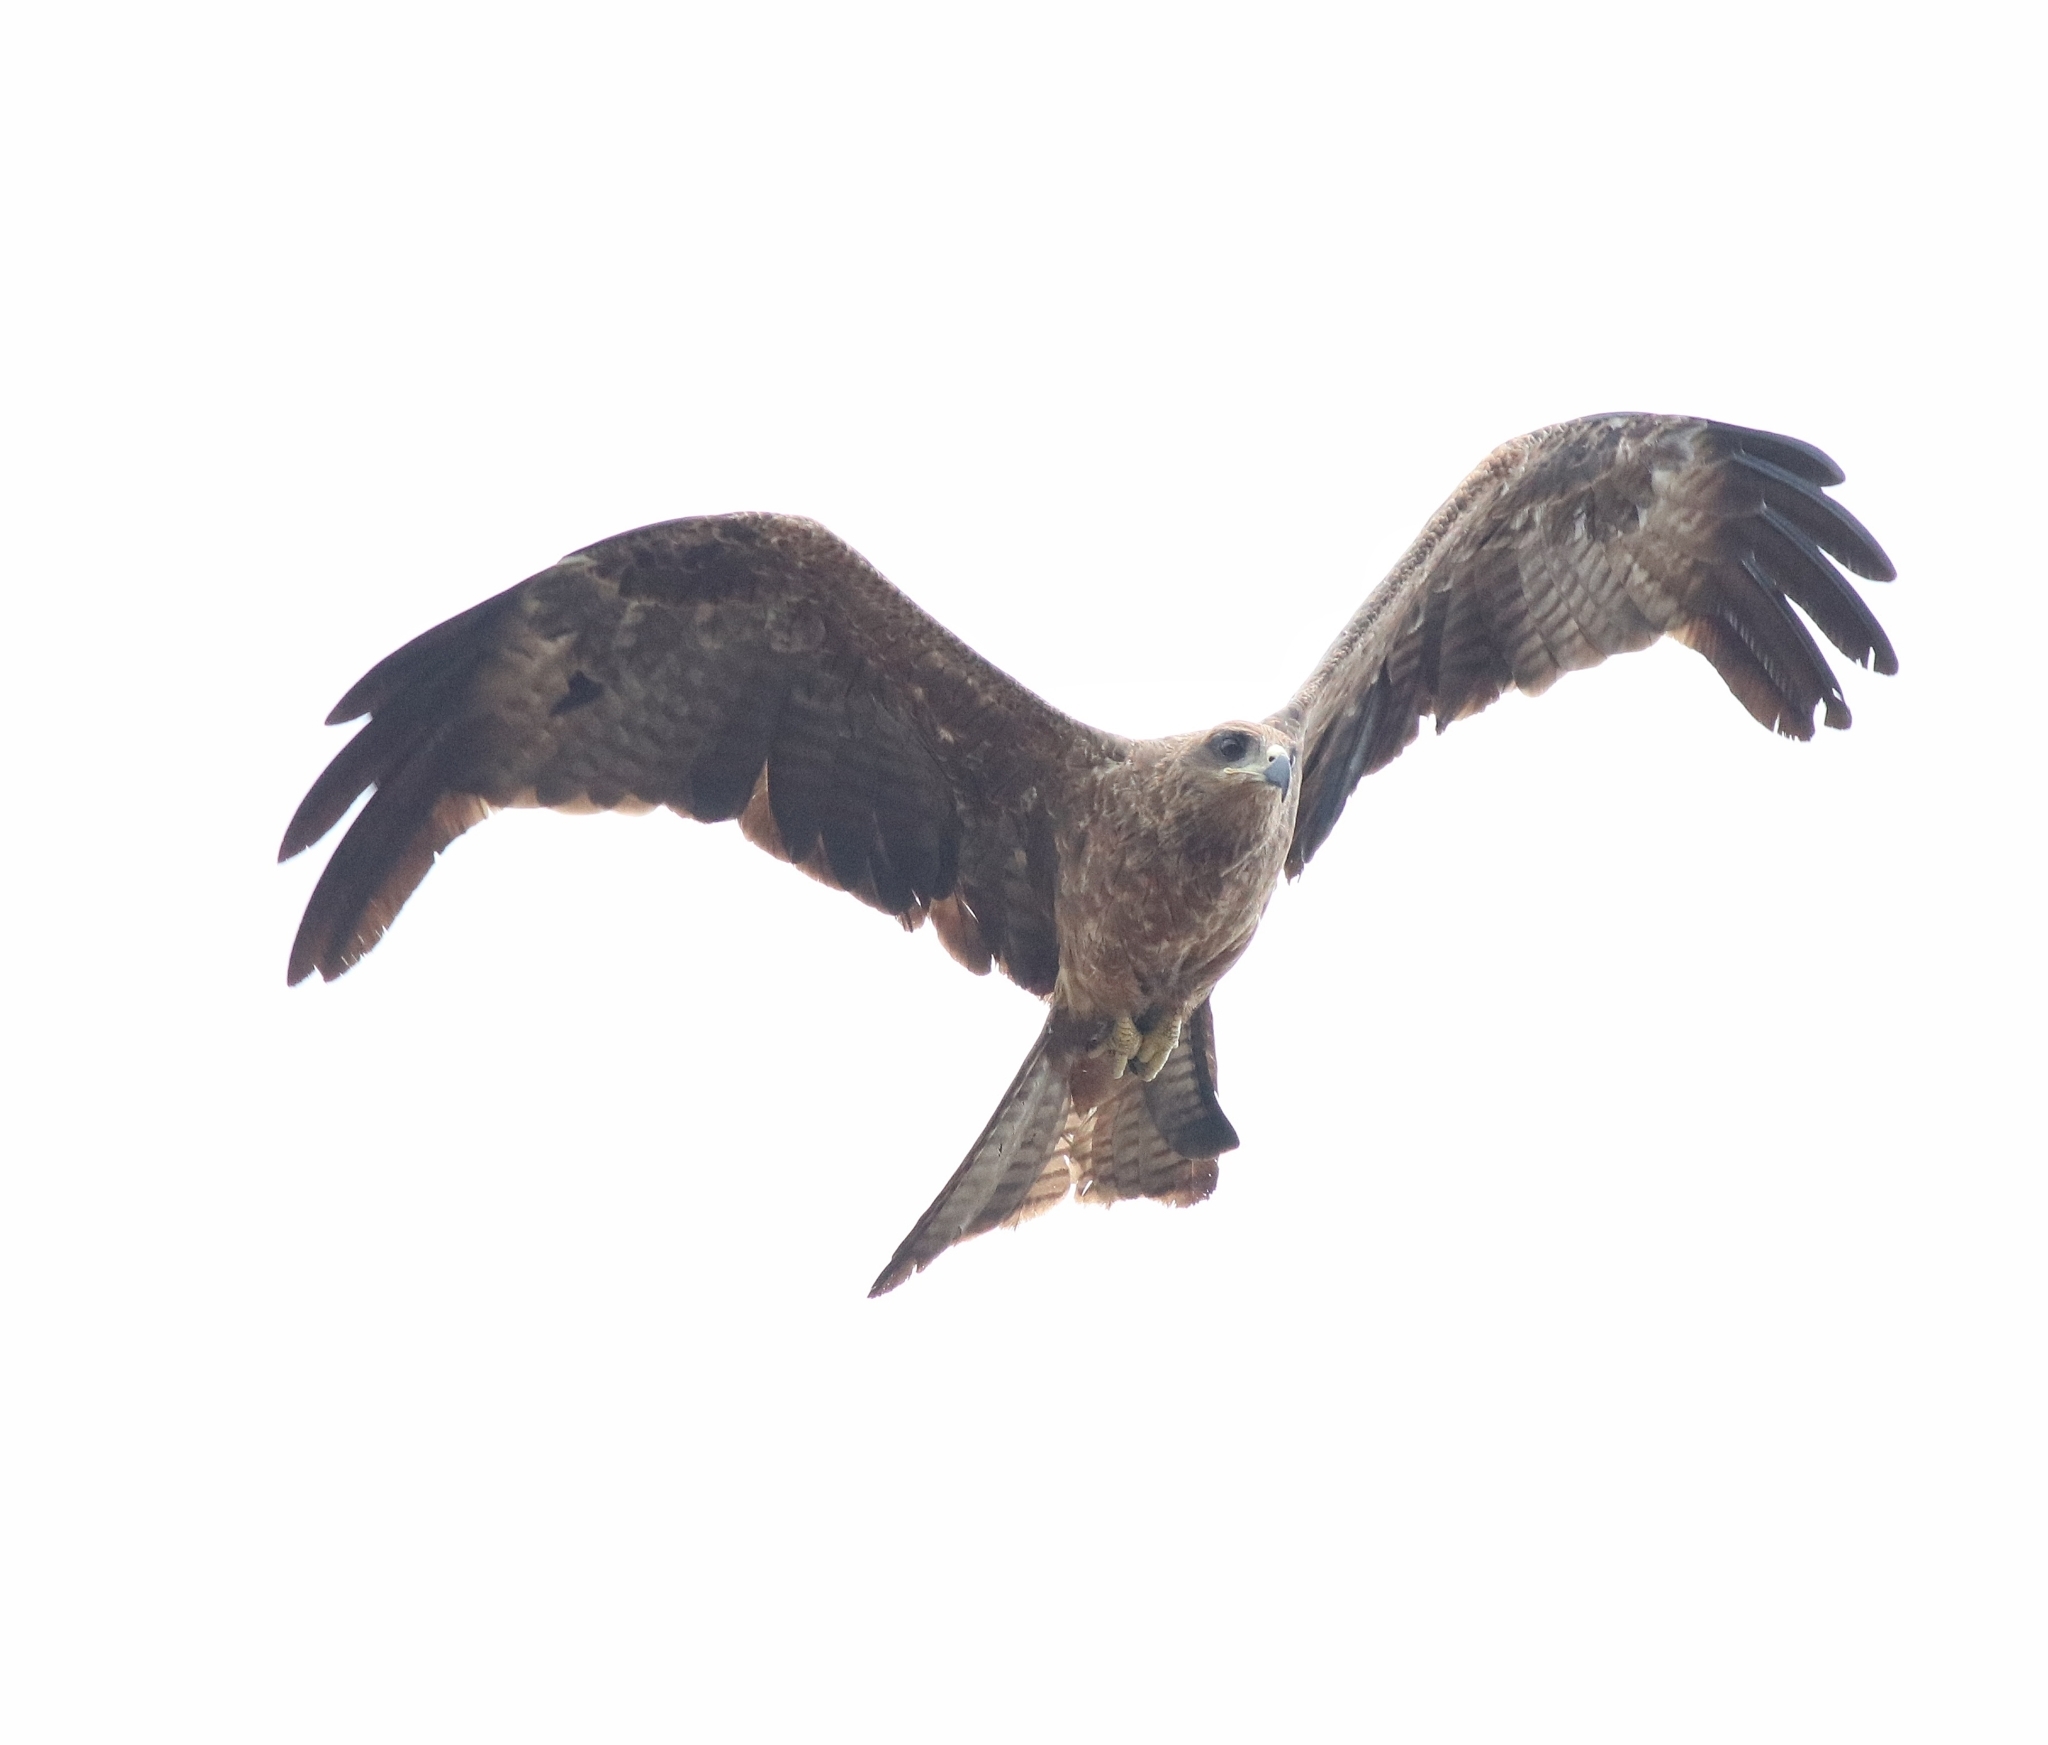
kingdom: Animalia
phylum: Chordata
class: Aves
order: Accipitriformes
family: Accipitridae
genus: Milvus
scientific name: Milvus migrans
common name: Black kite
